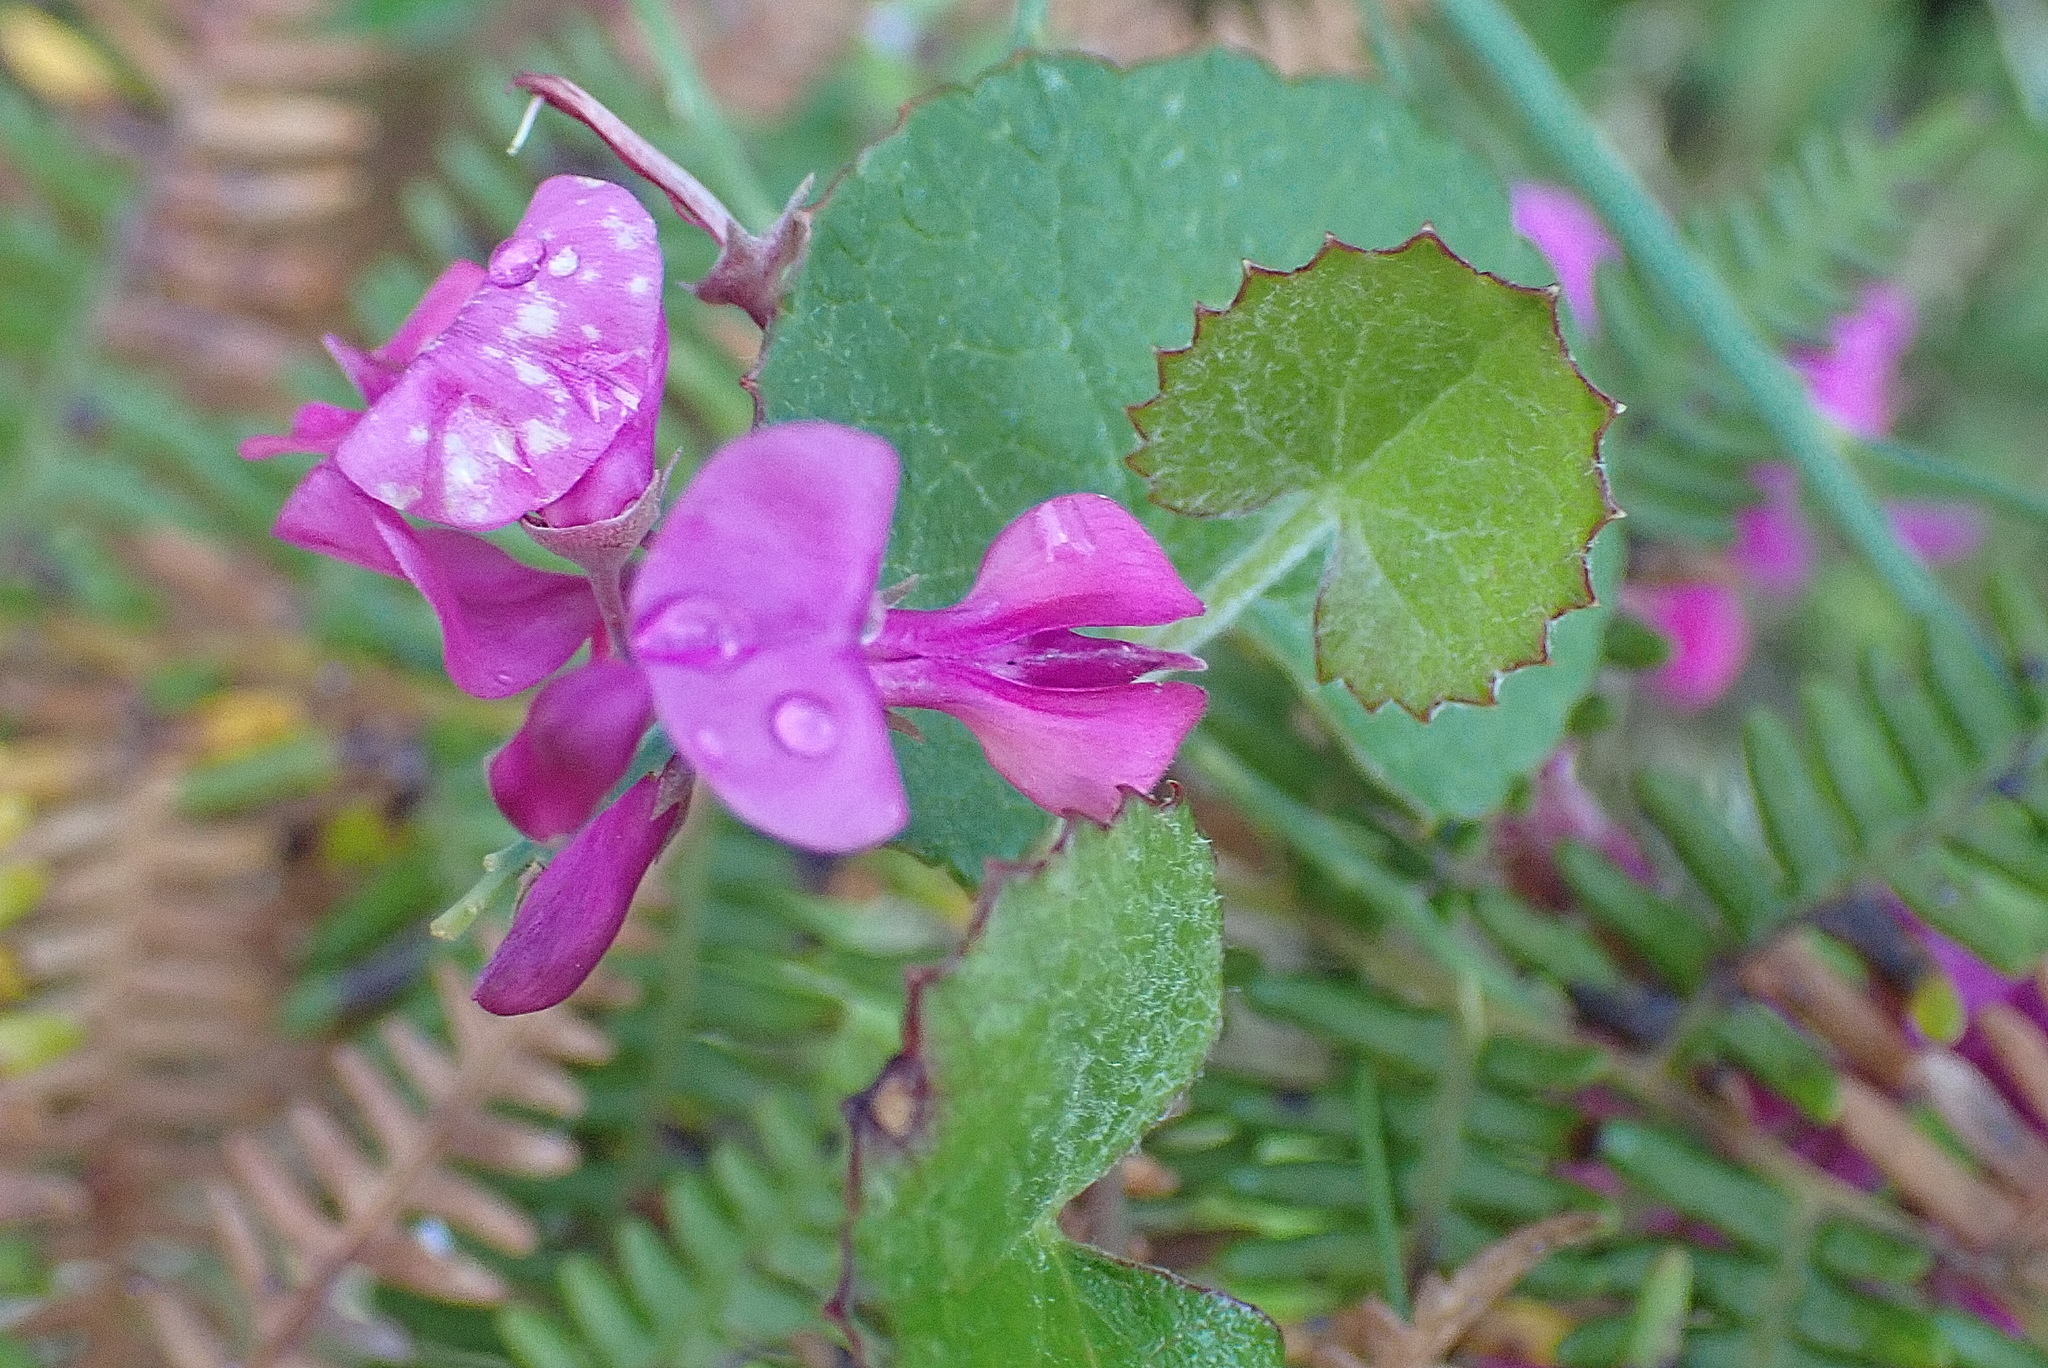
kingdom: Plantae
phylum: Tracheophyta
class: Magnoliopsida
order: Fabales
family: Fabaceae
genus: Indigofera
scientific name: Indigofera filifolia
